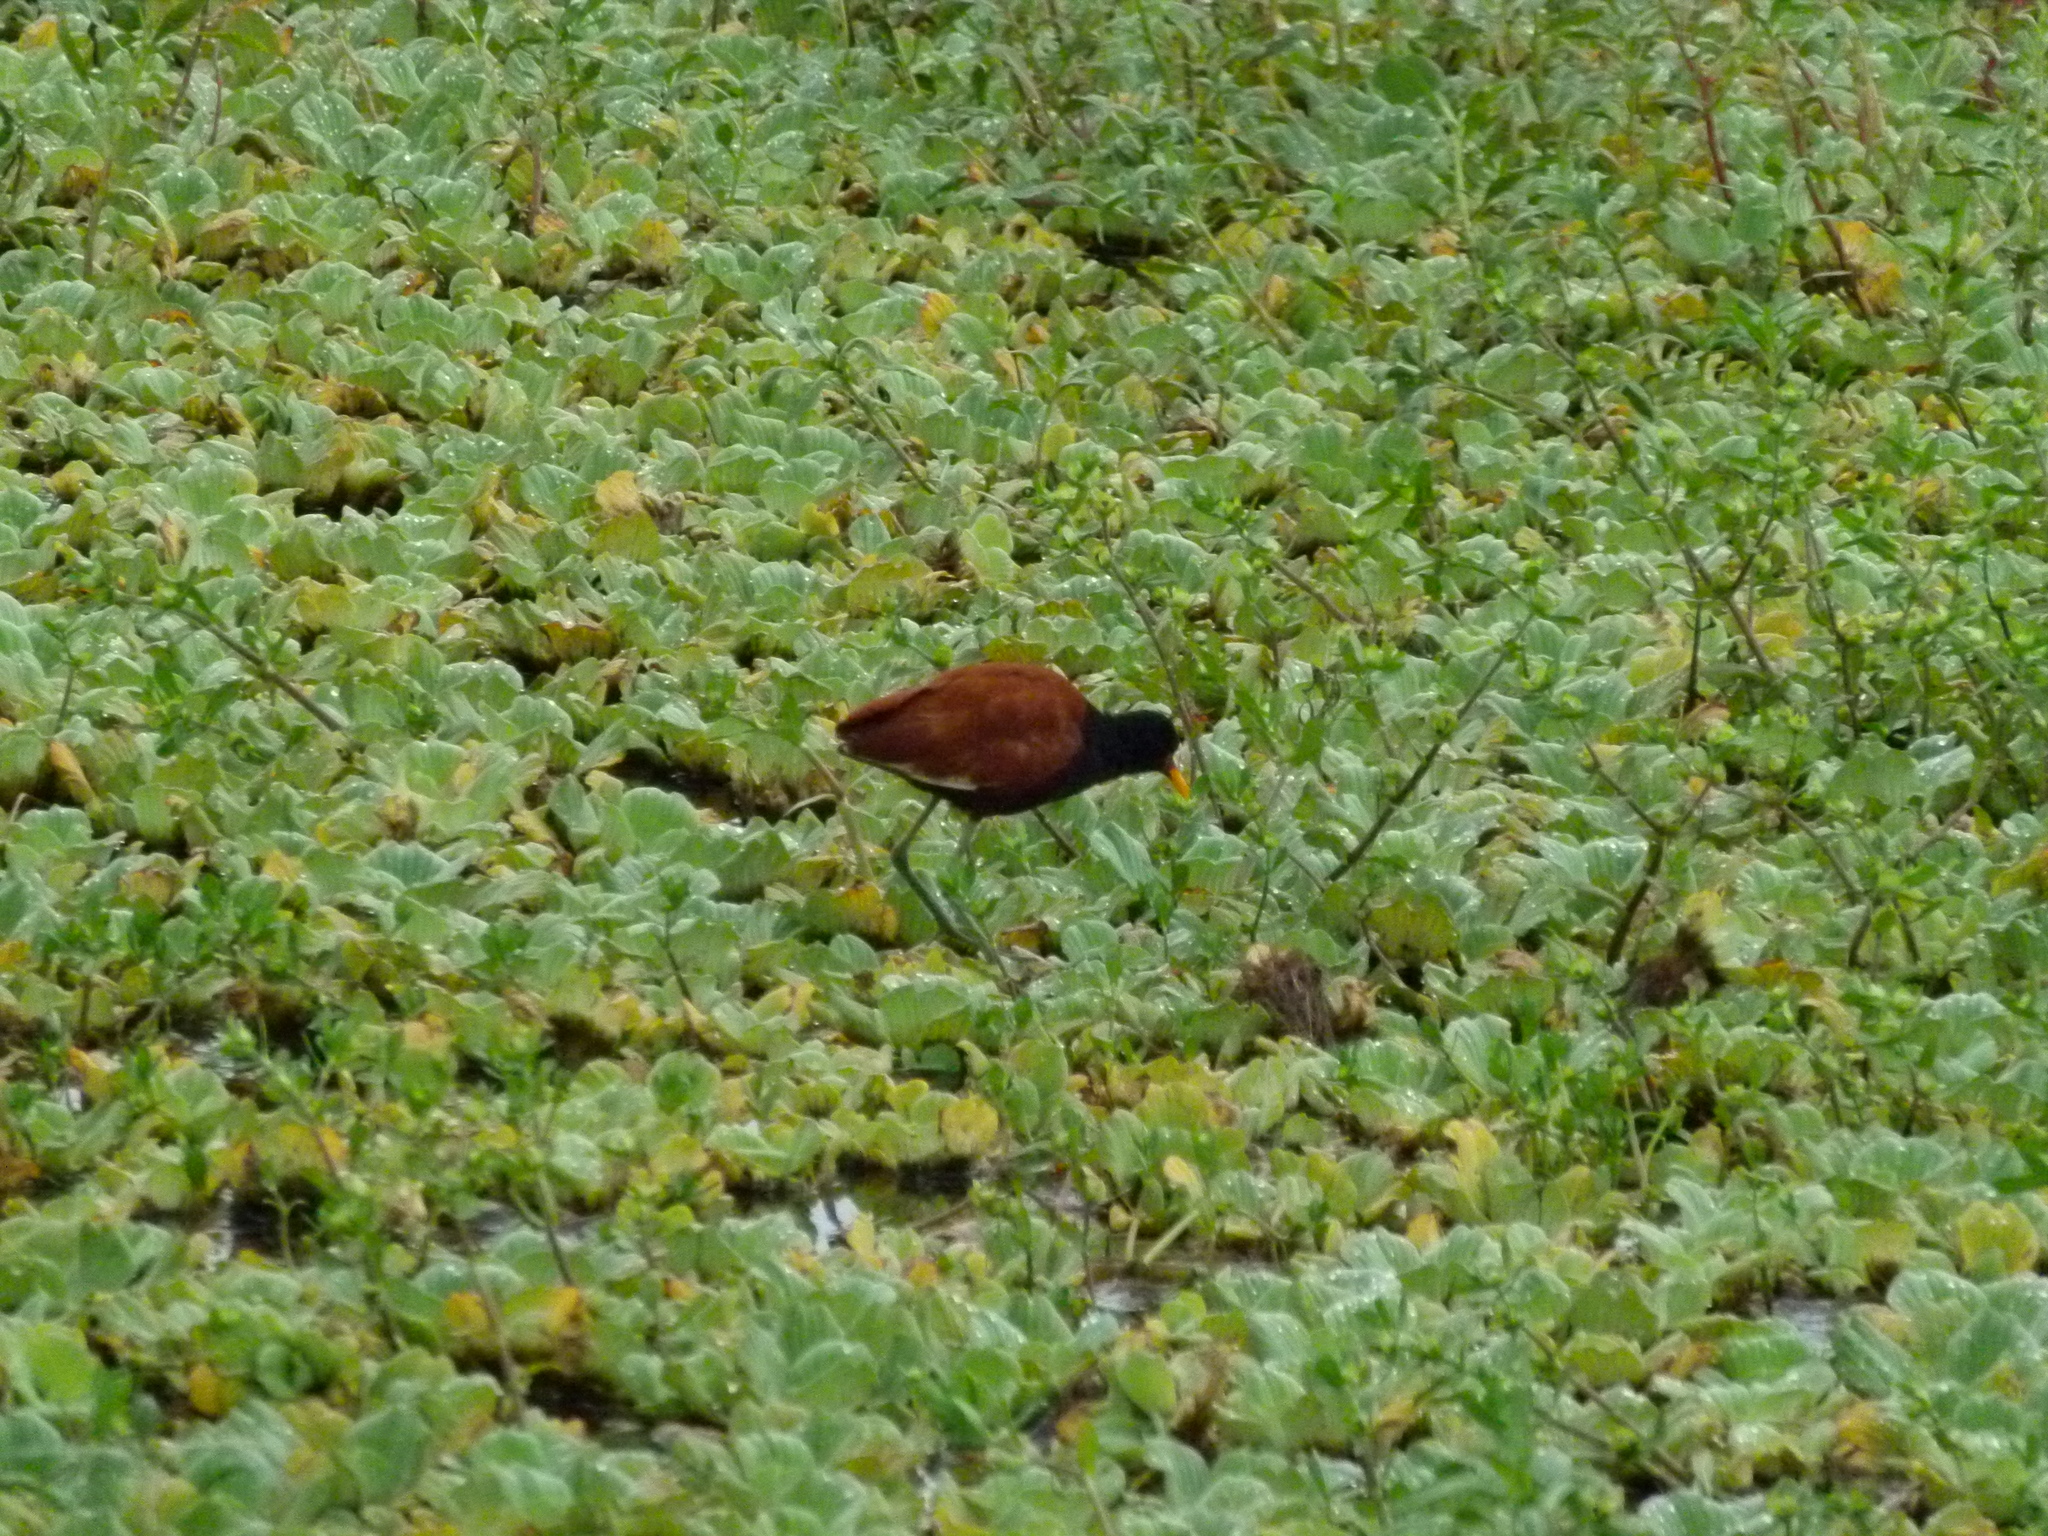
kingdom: Animalia
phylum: Chordata
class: Aves
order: Charadriiformes
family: Jacanidae
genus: Jacana
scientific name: Jacana jacana
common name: Wattled jacana
